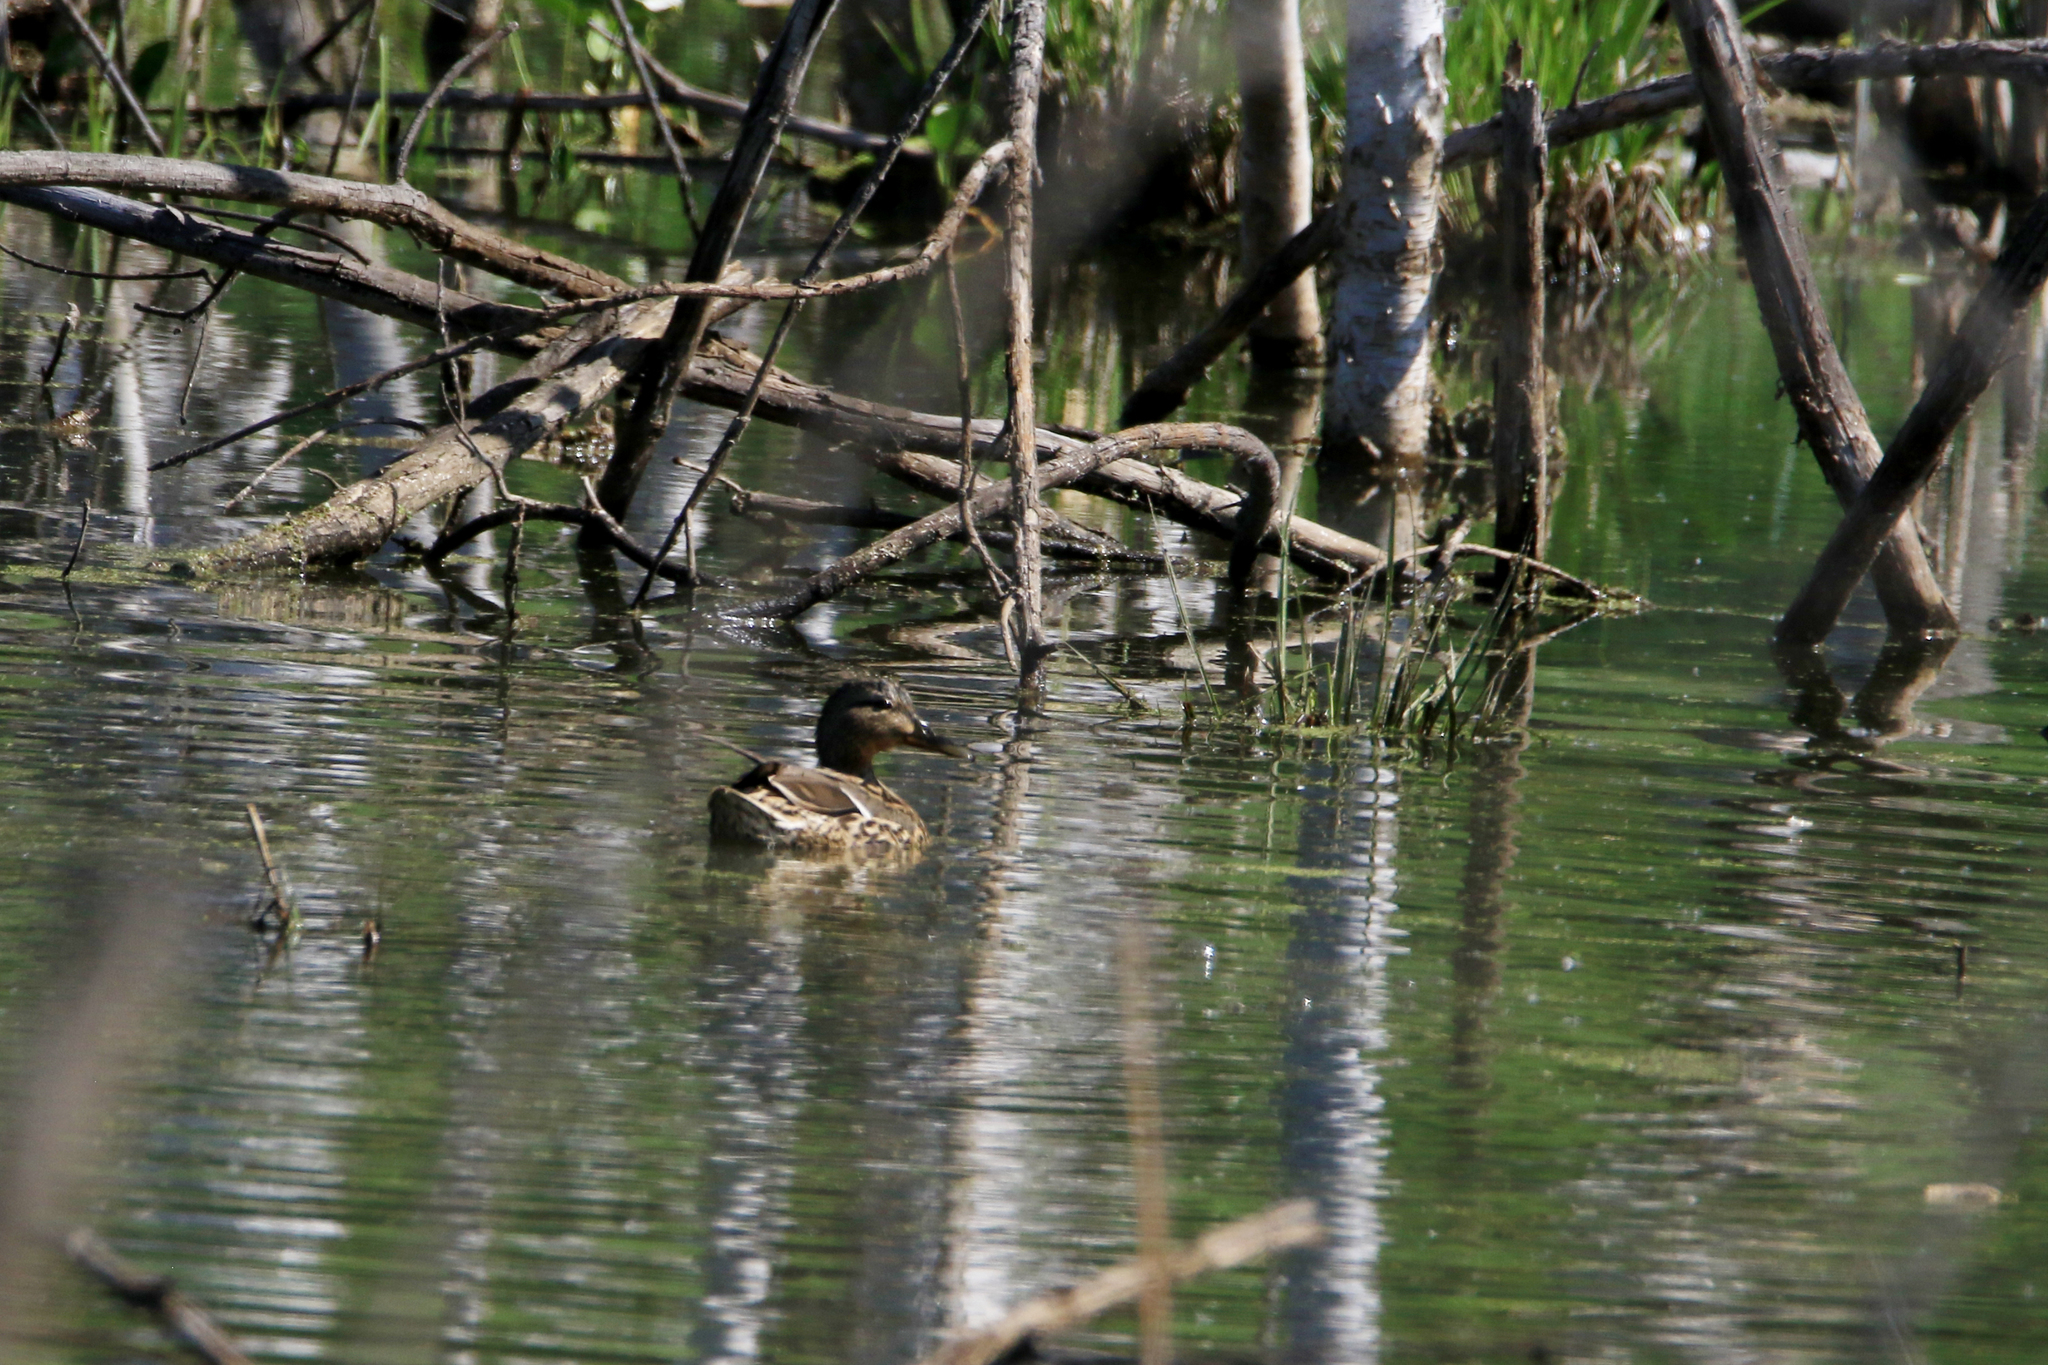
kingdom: Animalia
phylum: Chordata
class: Aves
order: Anseriformes
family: Anatidae
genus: Anas
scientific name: Anas platyrhynchos
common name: Mallard
